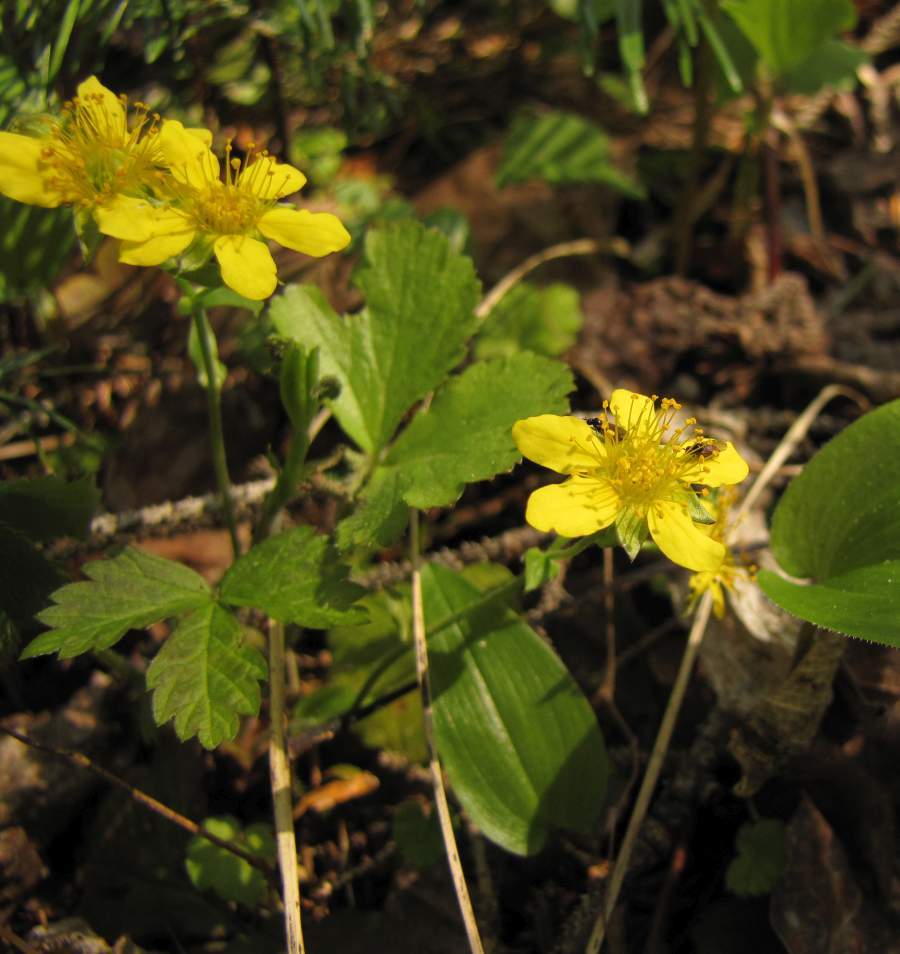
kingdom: Plantae
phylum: Tracheophyta
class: Magnoliopsida
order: Rosales
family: Rosaceae
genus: Geum
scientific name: Geum fragarioides
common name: Appalachian barren strawberry
